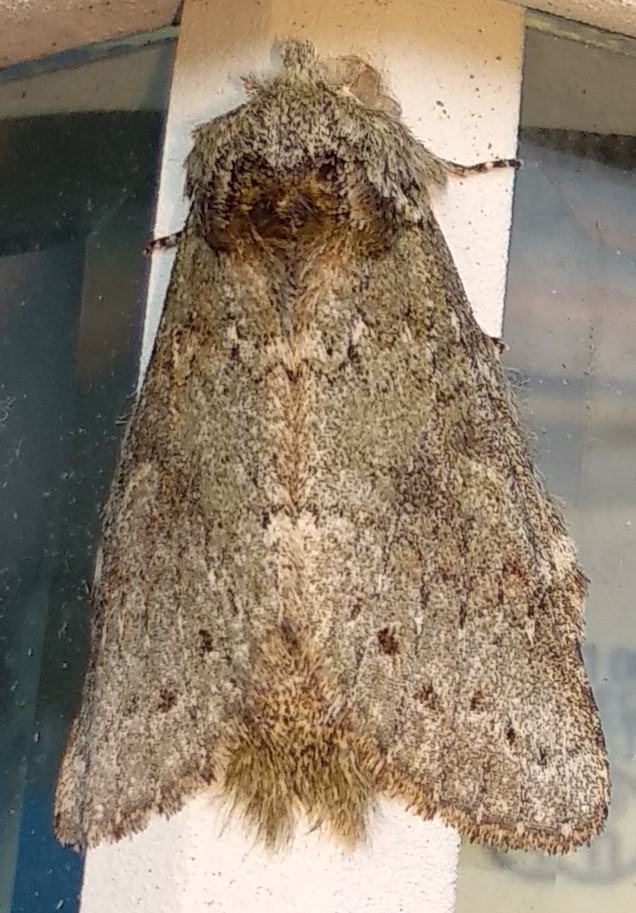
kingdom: Animalia
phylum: Arthropoda
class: Insecta
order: Lepidoptera
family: Notodontidae
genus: Disphragis
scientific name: Disphragis Cecrita biundata
